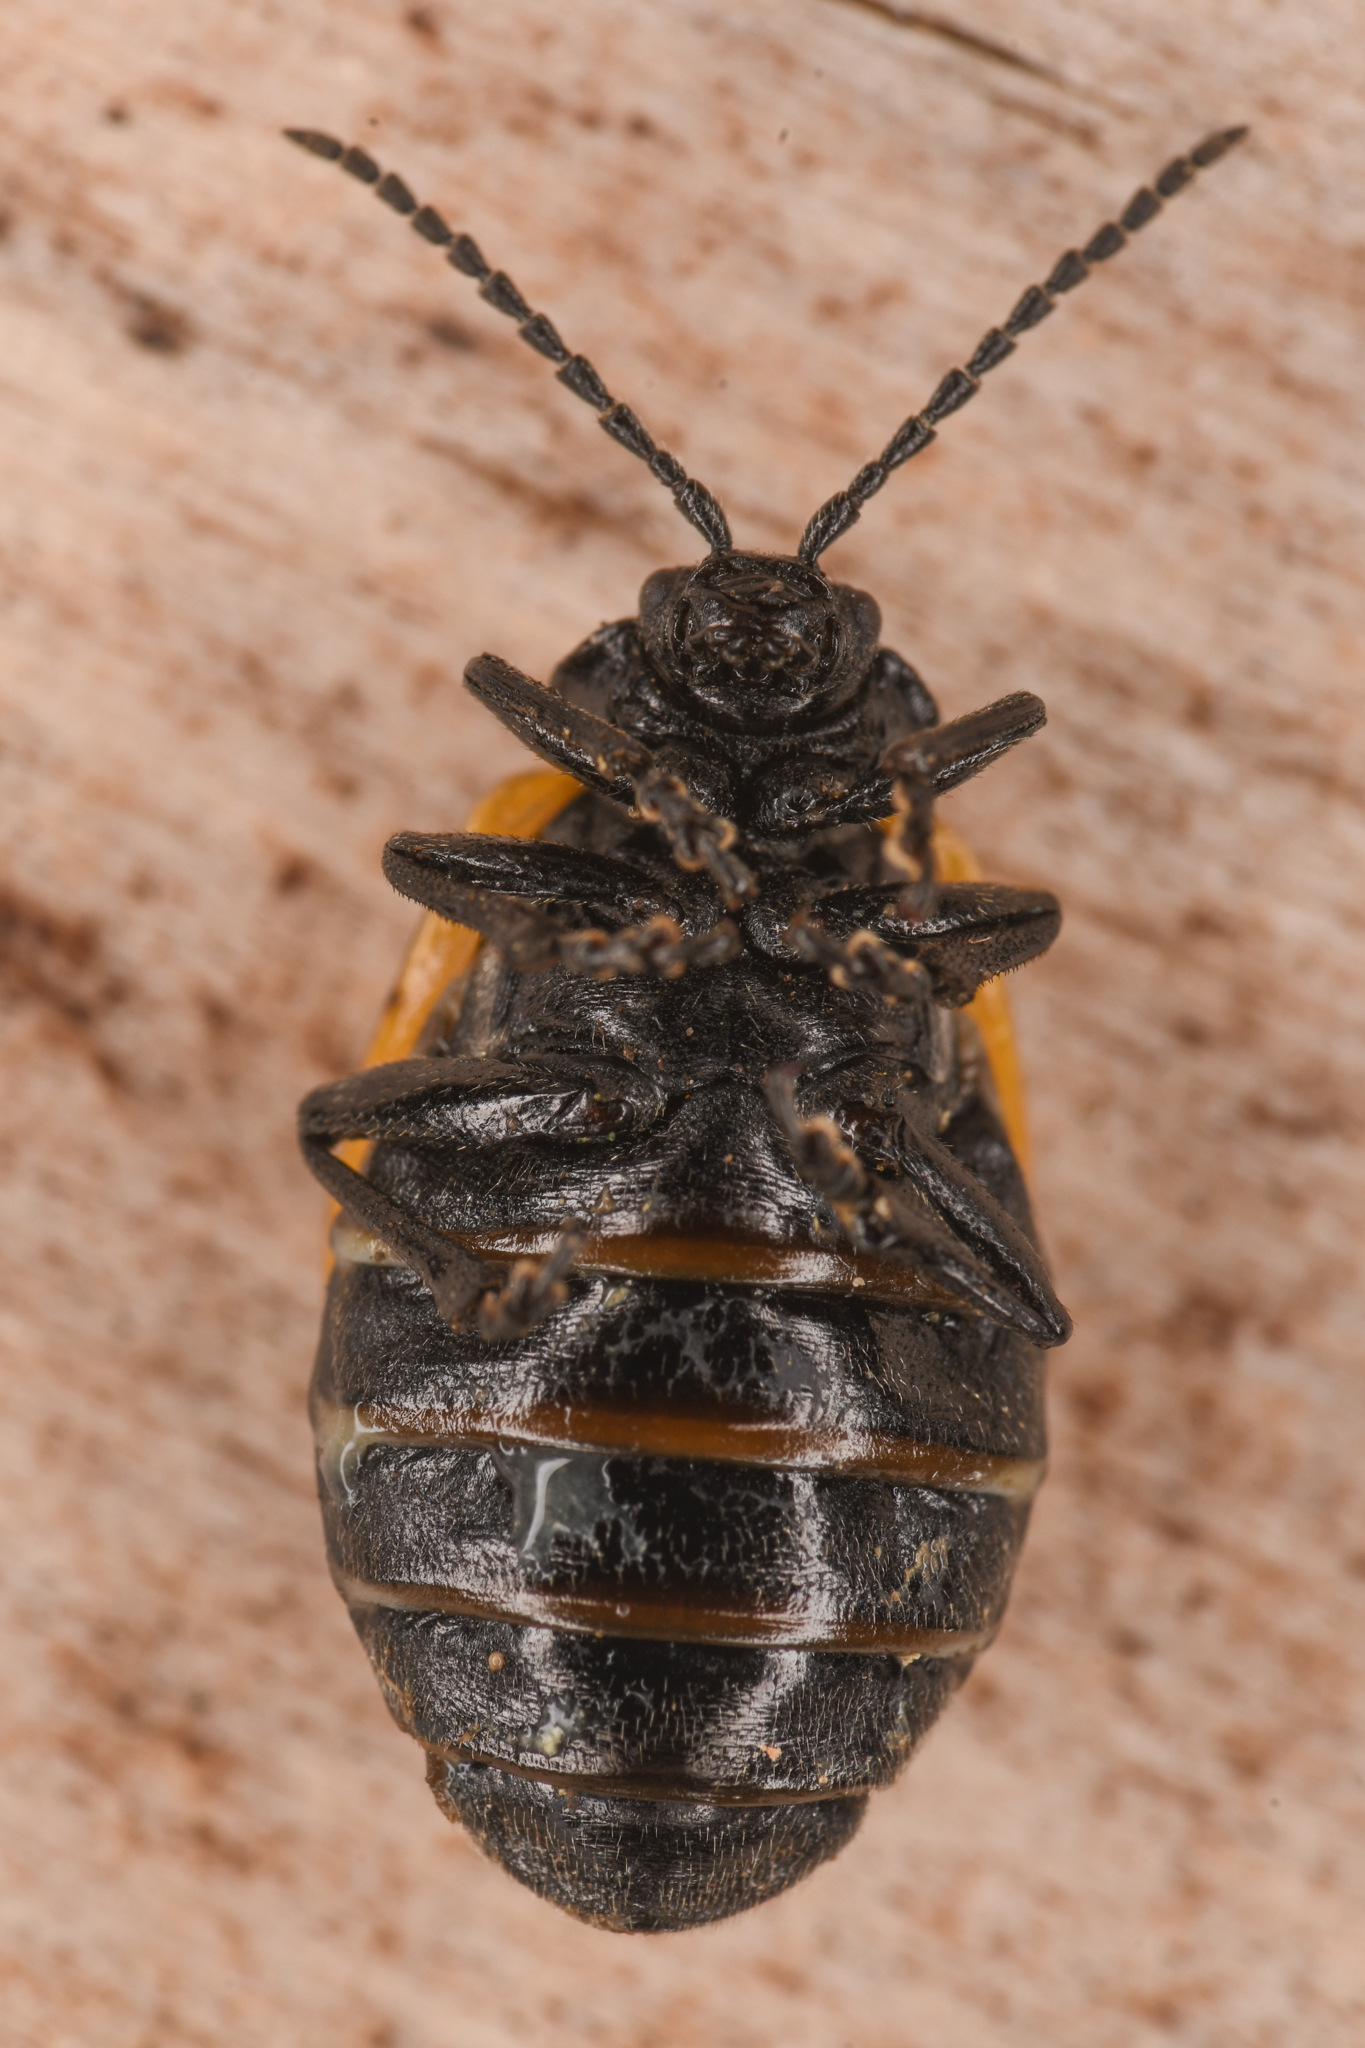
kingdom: Animalia
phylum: Arthropoda
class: Insecta
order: Coleoptera
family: Chrysomelidae
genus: Galeruca
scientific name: Galeruca rudis
